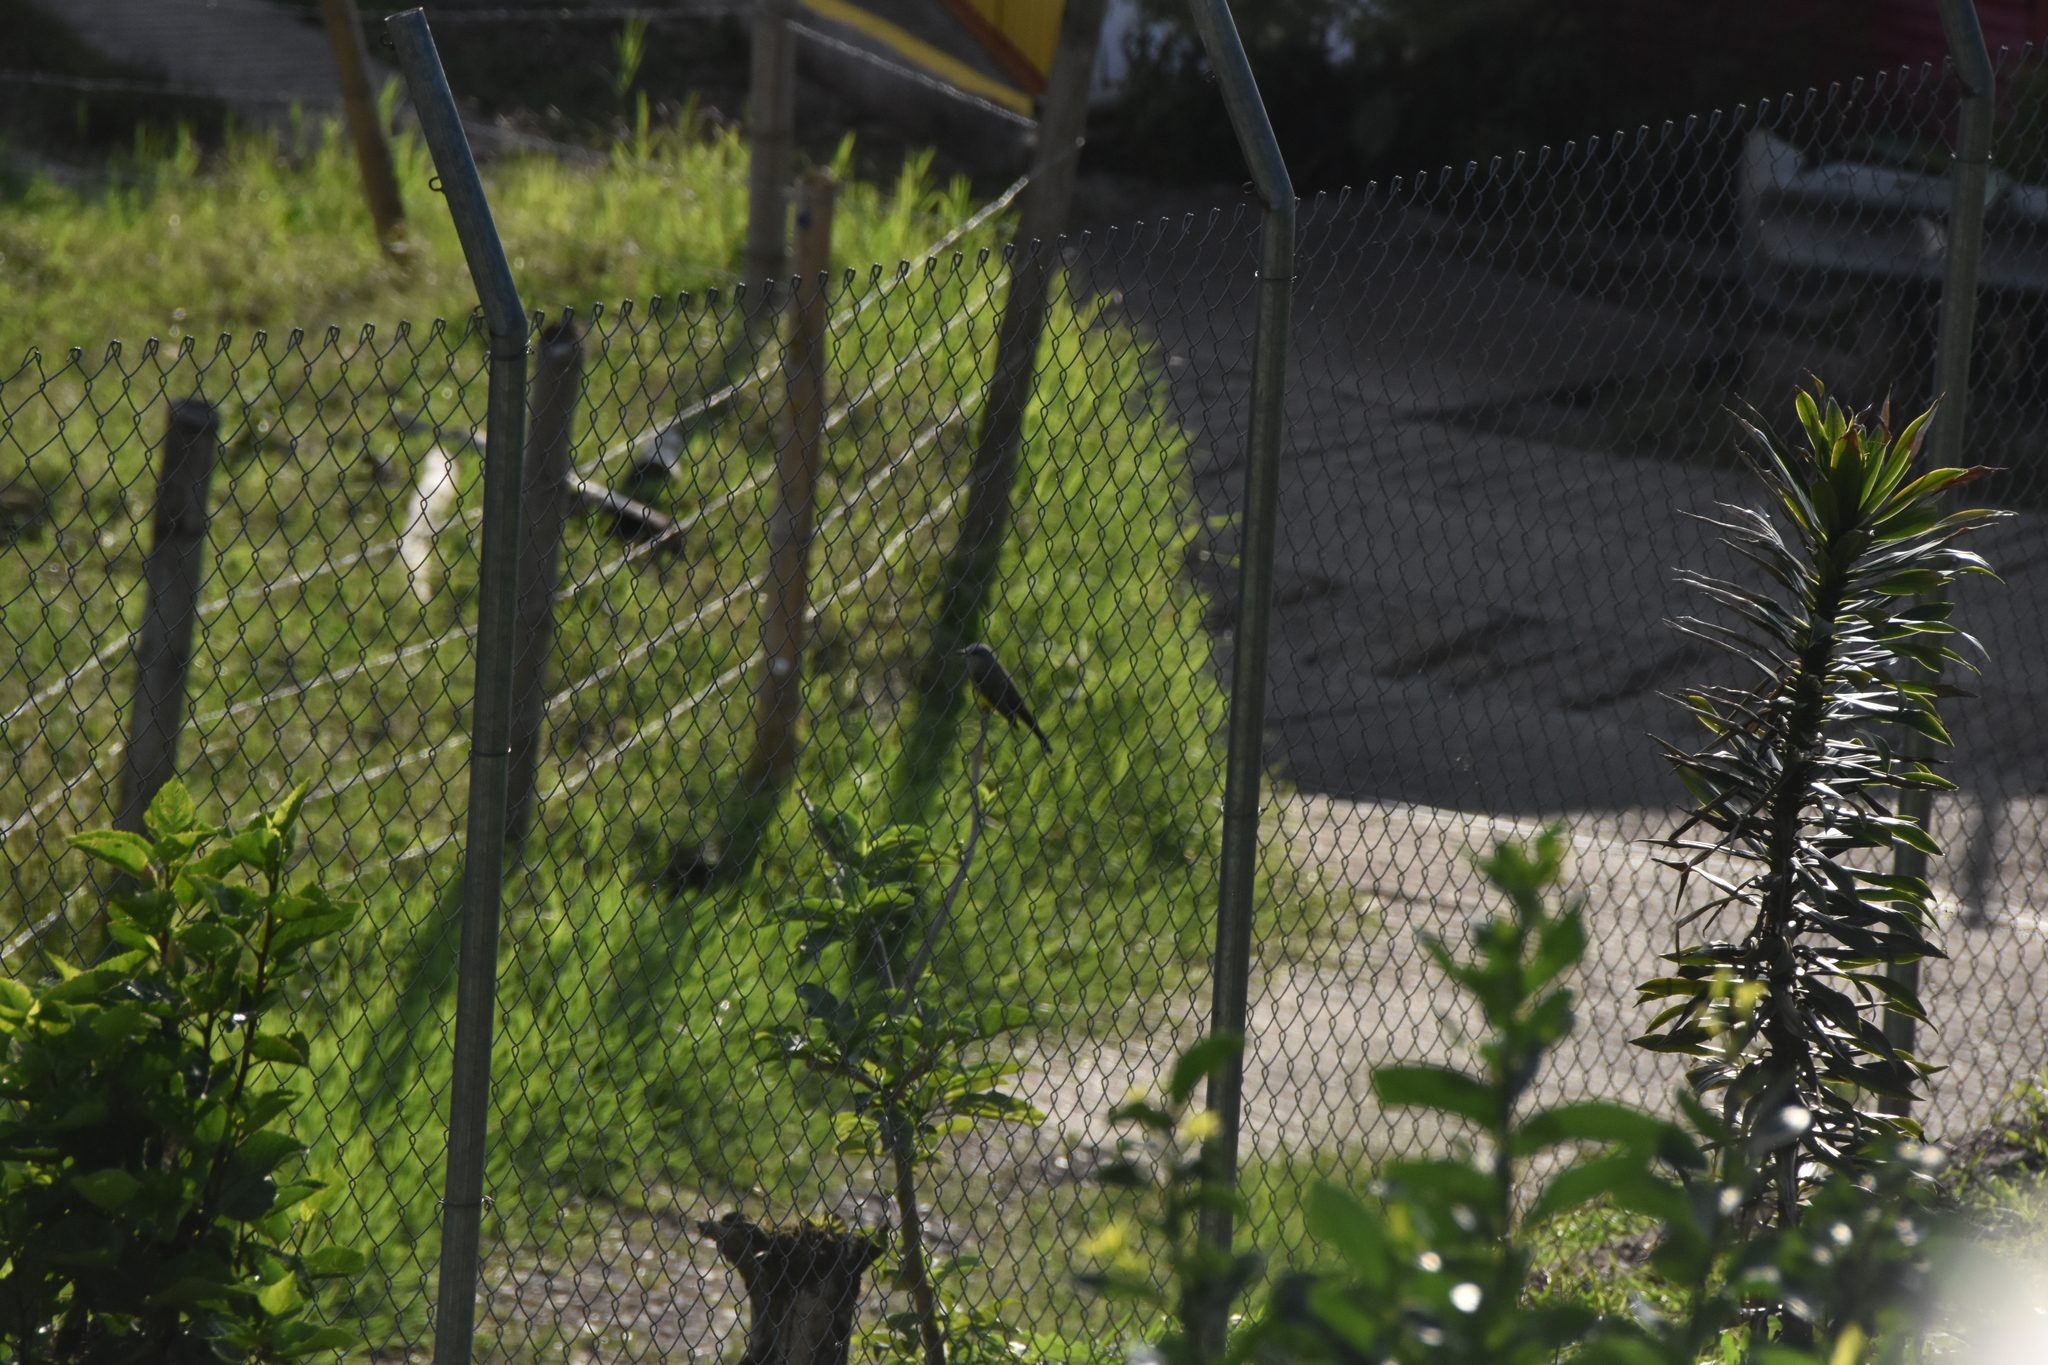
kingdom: Animalia
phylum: Chordata
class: Aves
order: Passeriformes
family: Tyrannidae
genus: Tyrannus
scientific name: Tyrannus melancholicus
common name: Tropical kingbird
